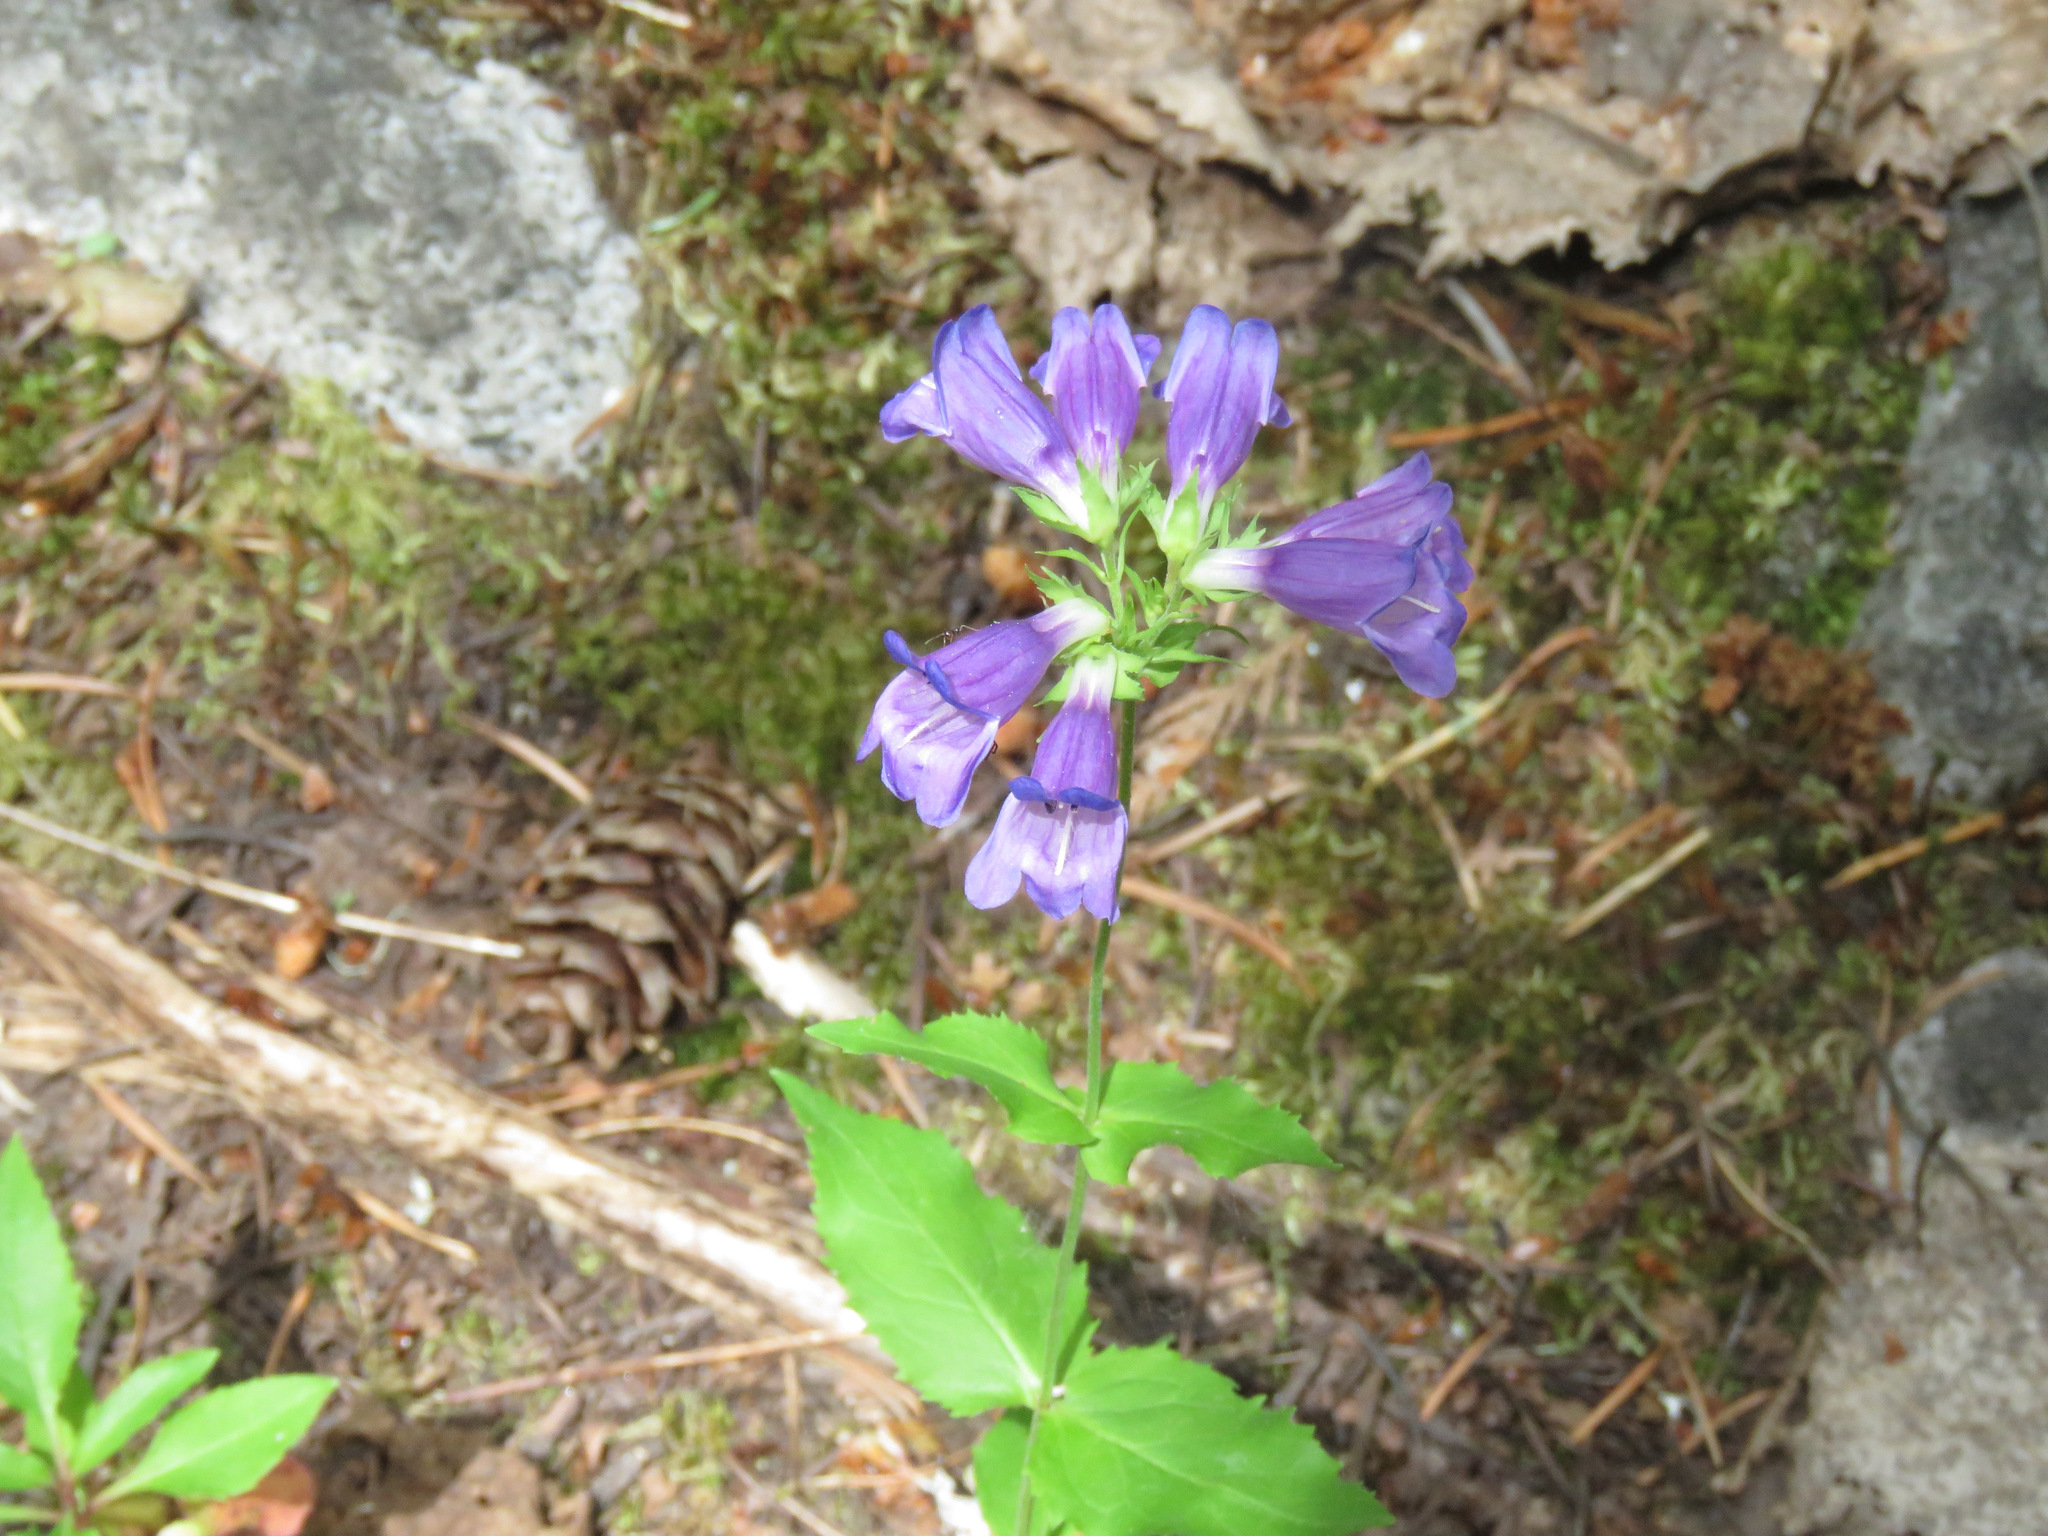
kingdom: Plantae
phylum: Tracheophyta
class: Magnoliopsida
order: Lamiales
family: Plantaginaceae
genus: Penstemon
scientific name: Penstemon serrulatus
